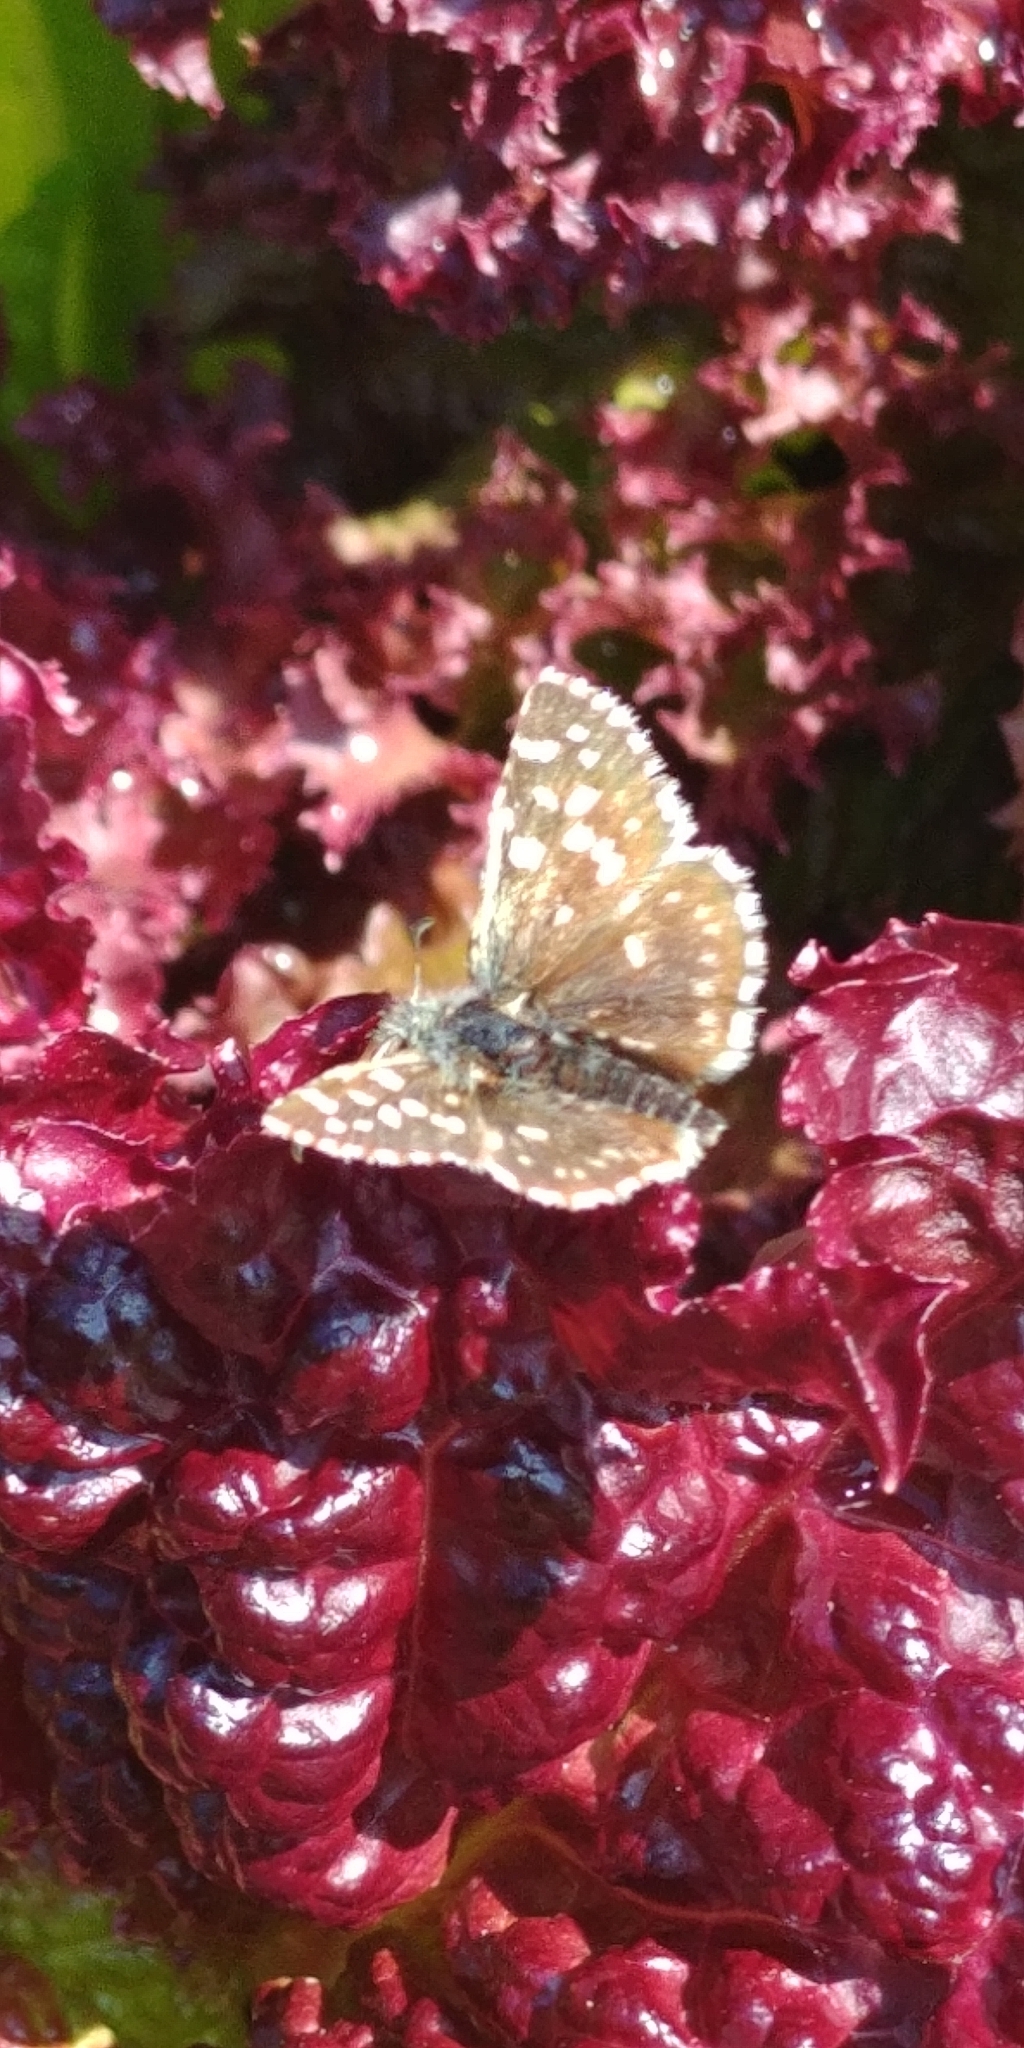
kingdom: Animalia
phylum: Arthropoda
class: Insecta
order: Lepidoptera
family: Hesperiidae
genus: Pyrgus
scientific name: Pyrgus malvae
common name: Grizzled skipper
